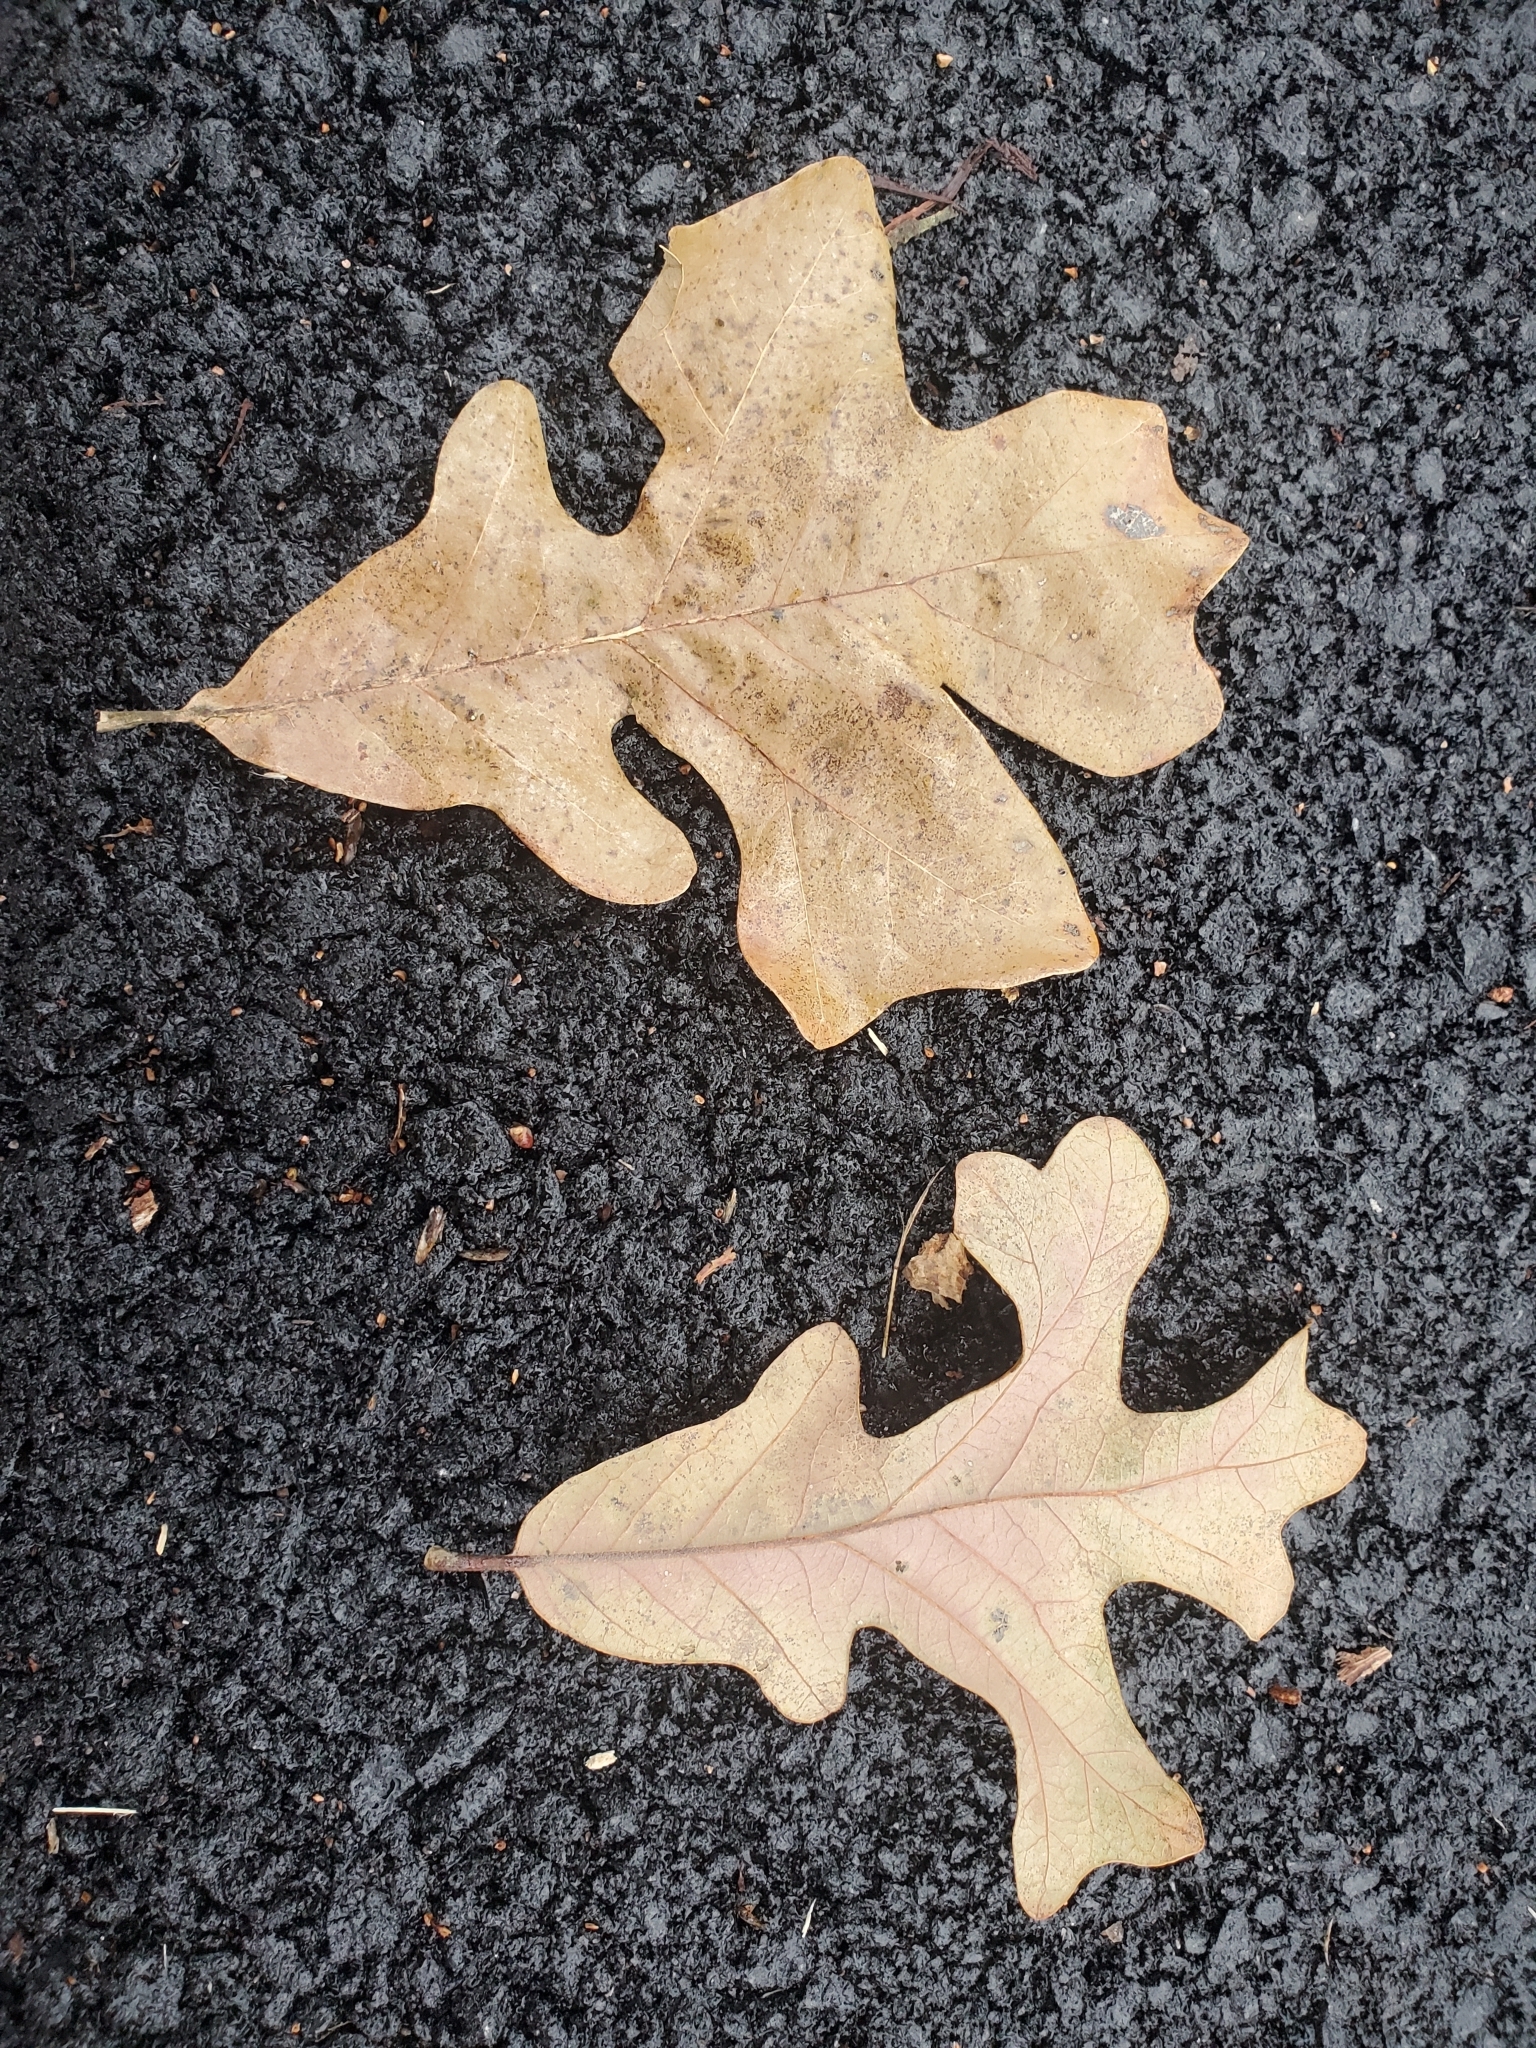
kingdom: Plantae
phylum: Tracheophyta
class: Magnoliopsida
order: Fagales
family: Fagaceae
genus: Quercus
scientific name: Quercus stellata
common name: Post oak
